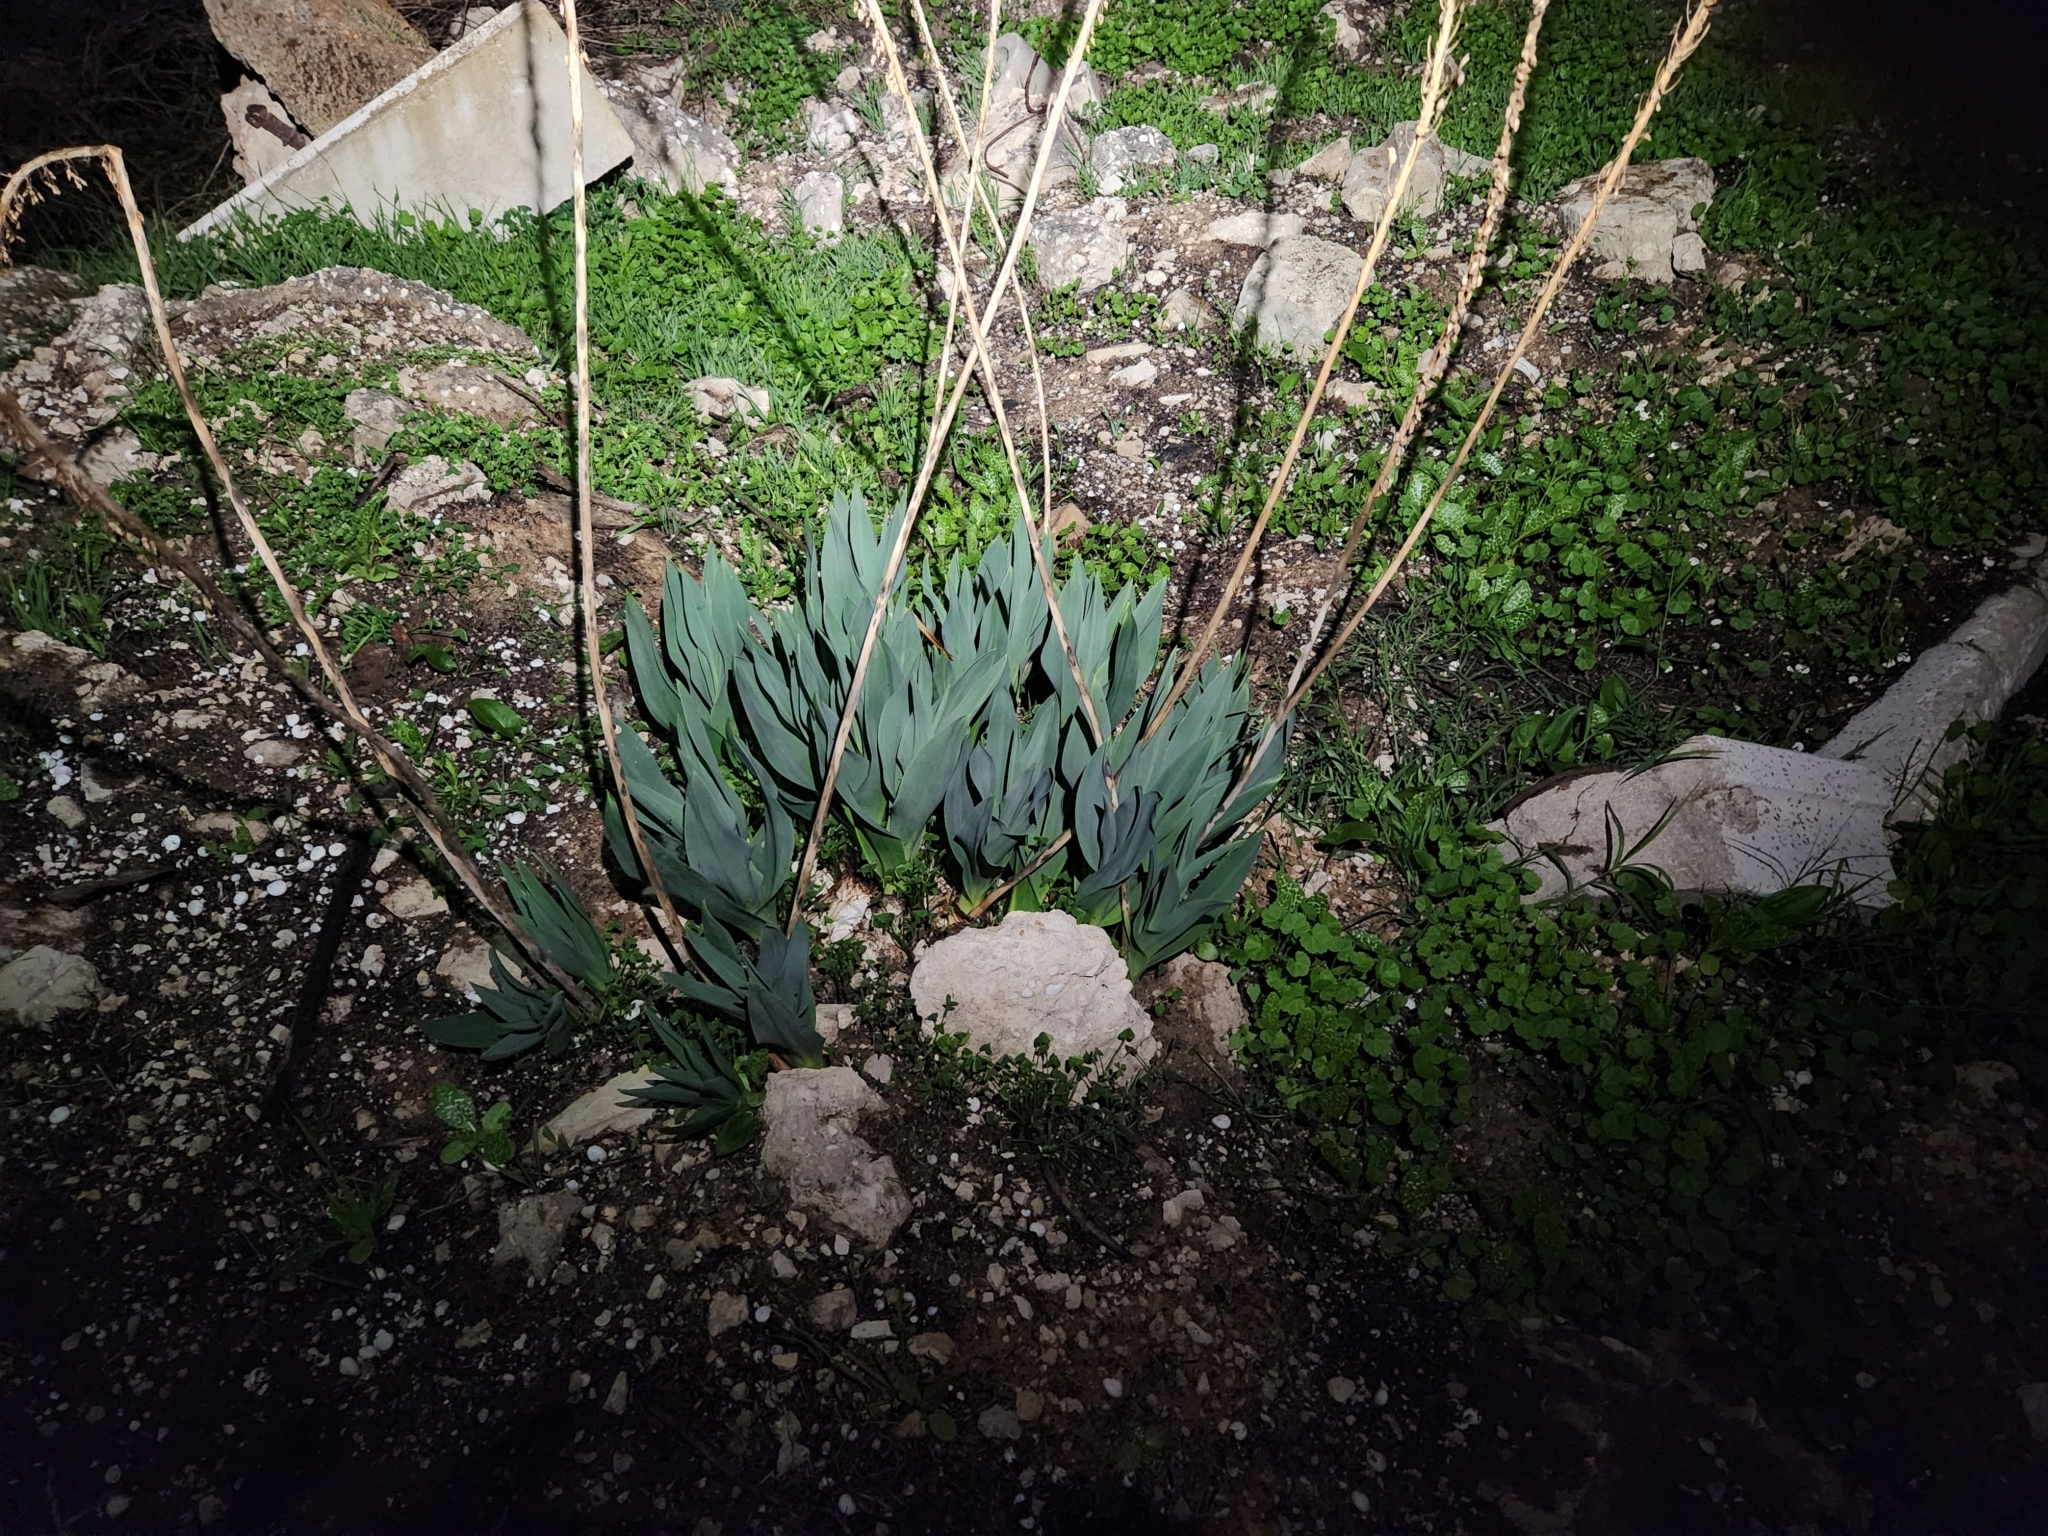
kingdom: Plantae
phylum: Tracheophyta
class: Liliopsida
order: Asparagales
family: Asparagaceae
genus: Drimia
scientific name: Drimia aphylla
